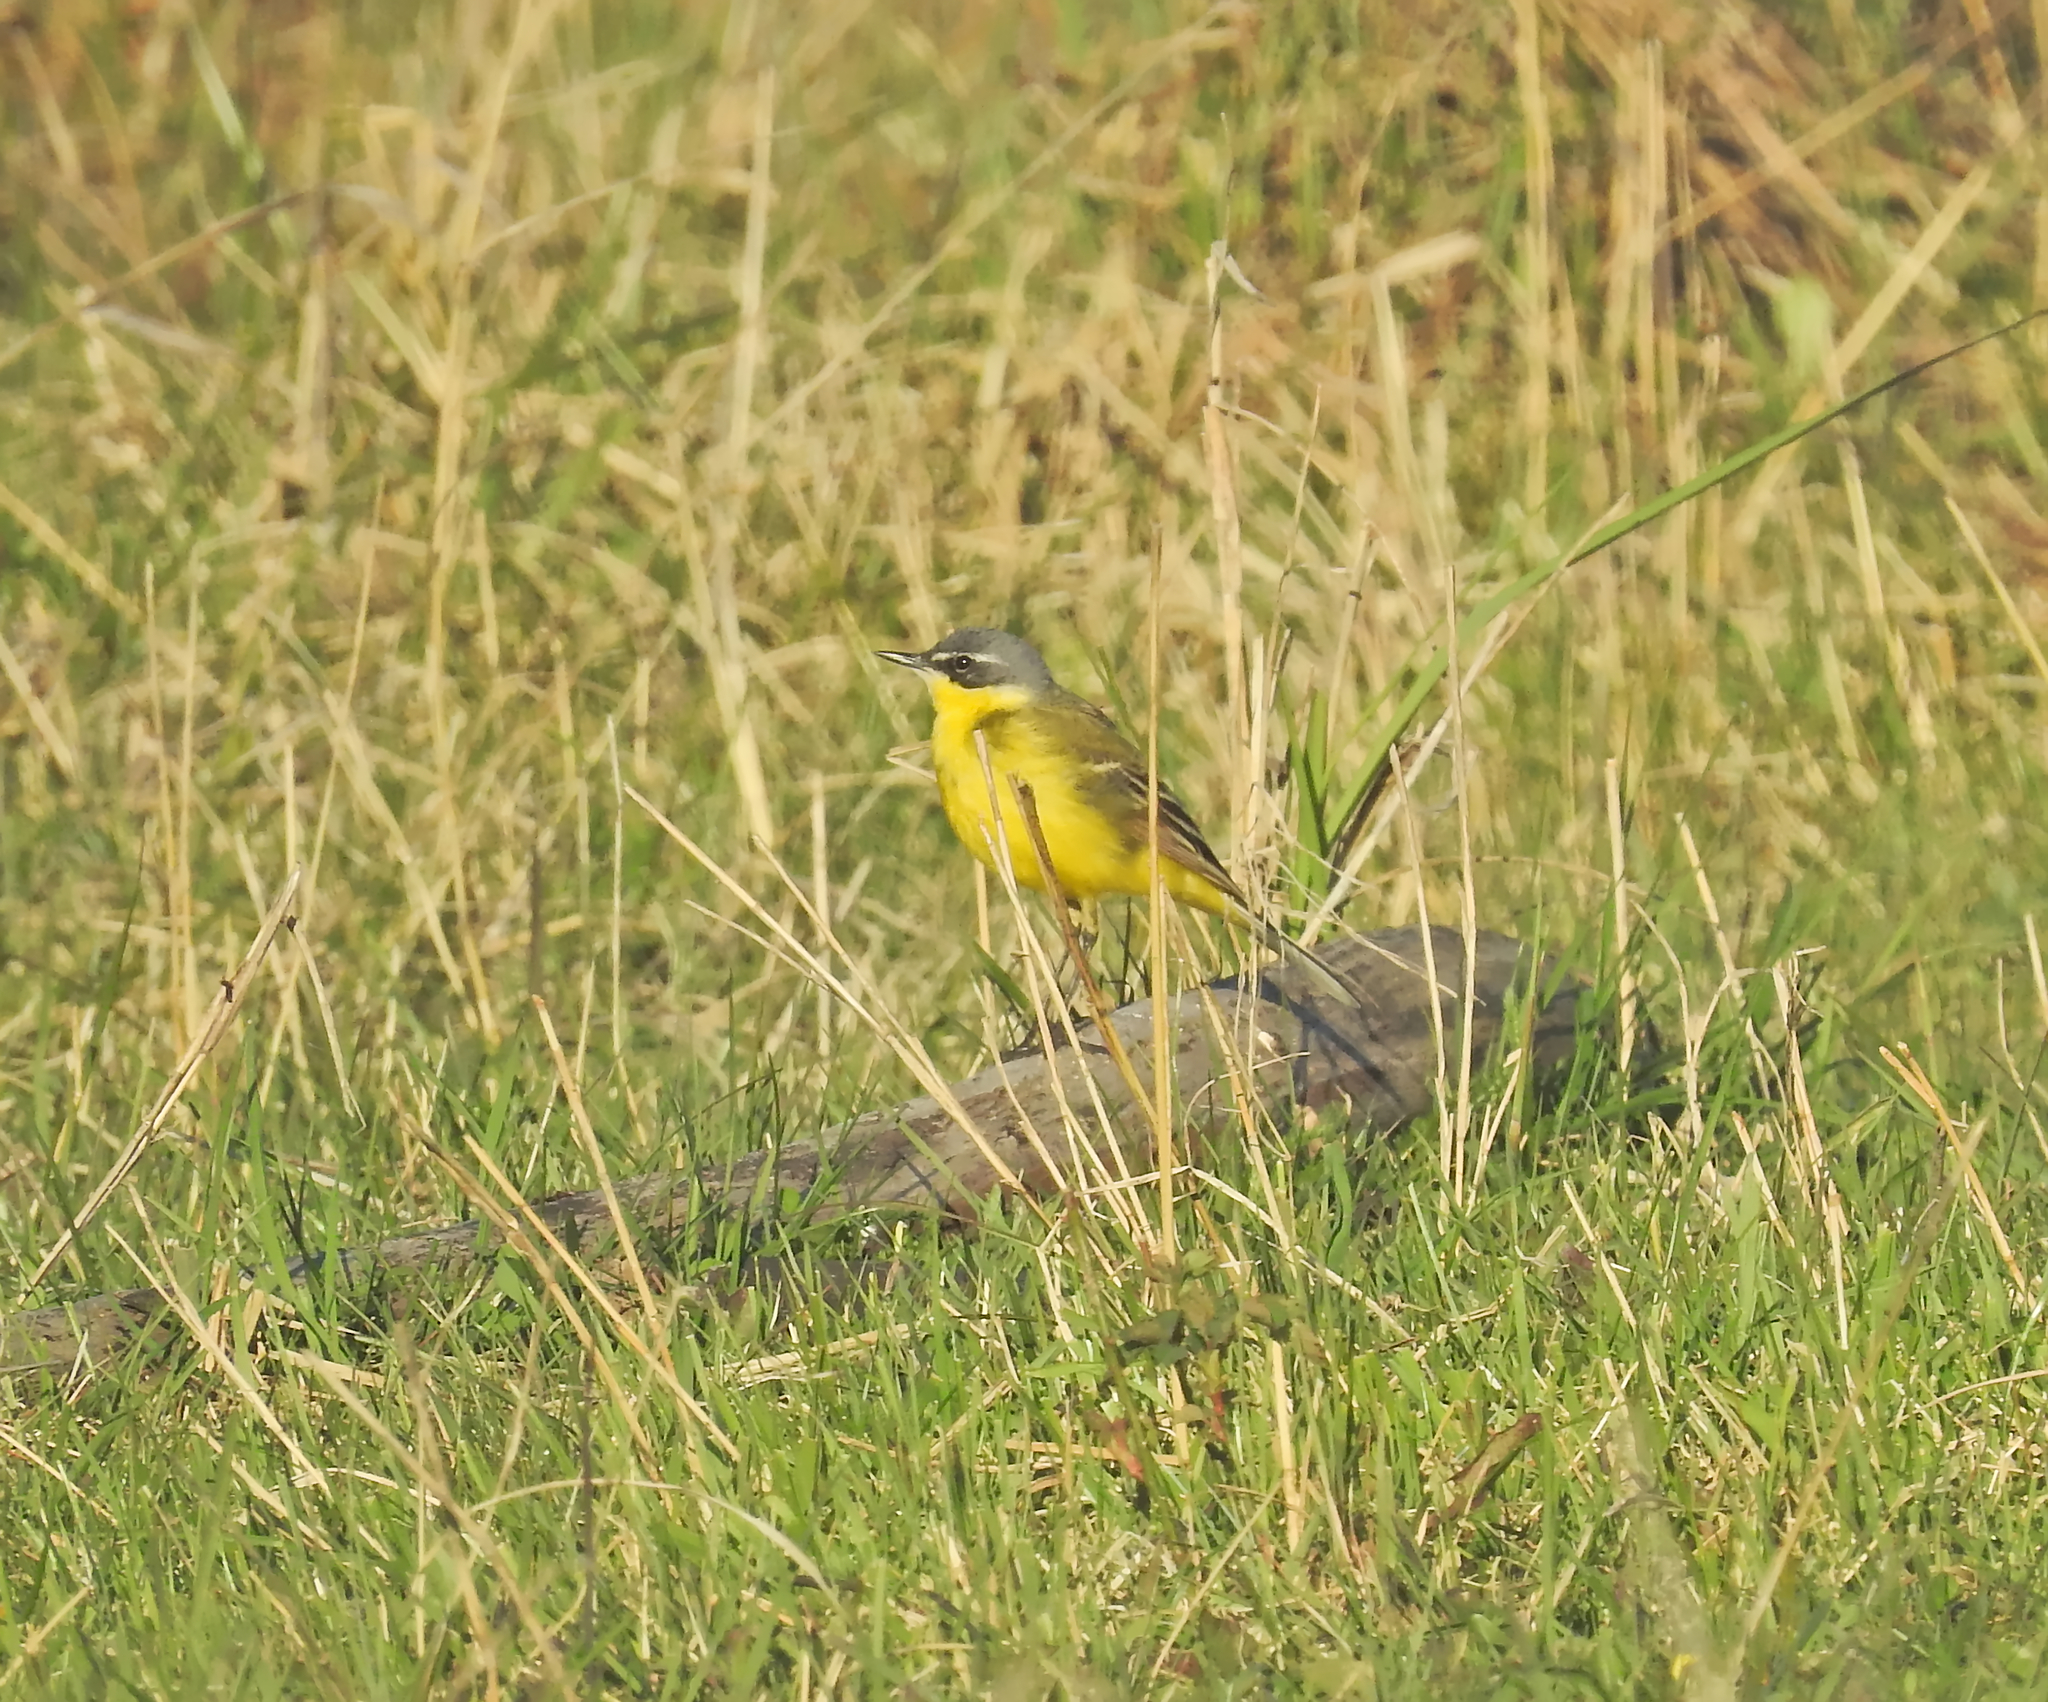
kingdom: Animalia
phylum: Chordata
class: Aves
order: Passeriformes
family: Motacillidae
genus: Motacilla
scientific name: Motacilla flava
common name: Western yellow wagtail
